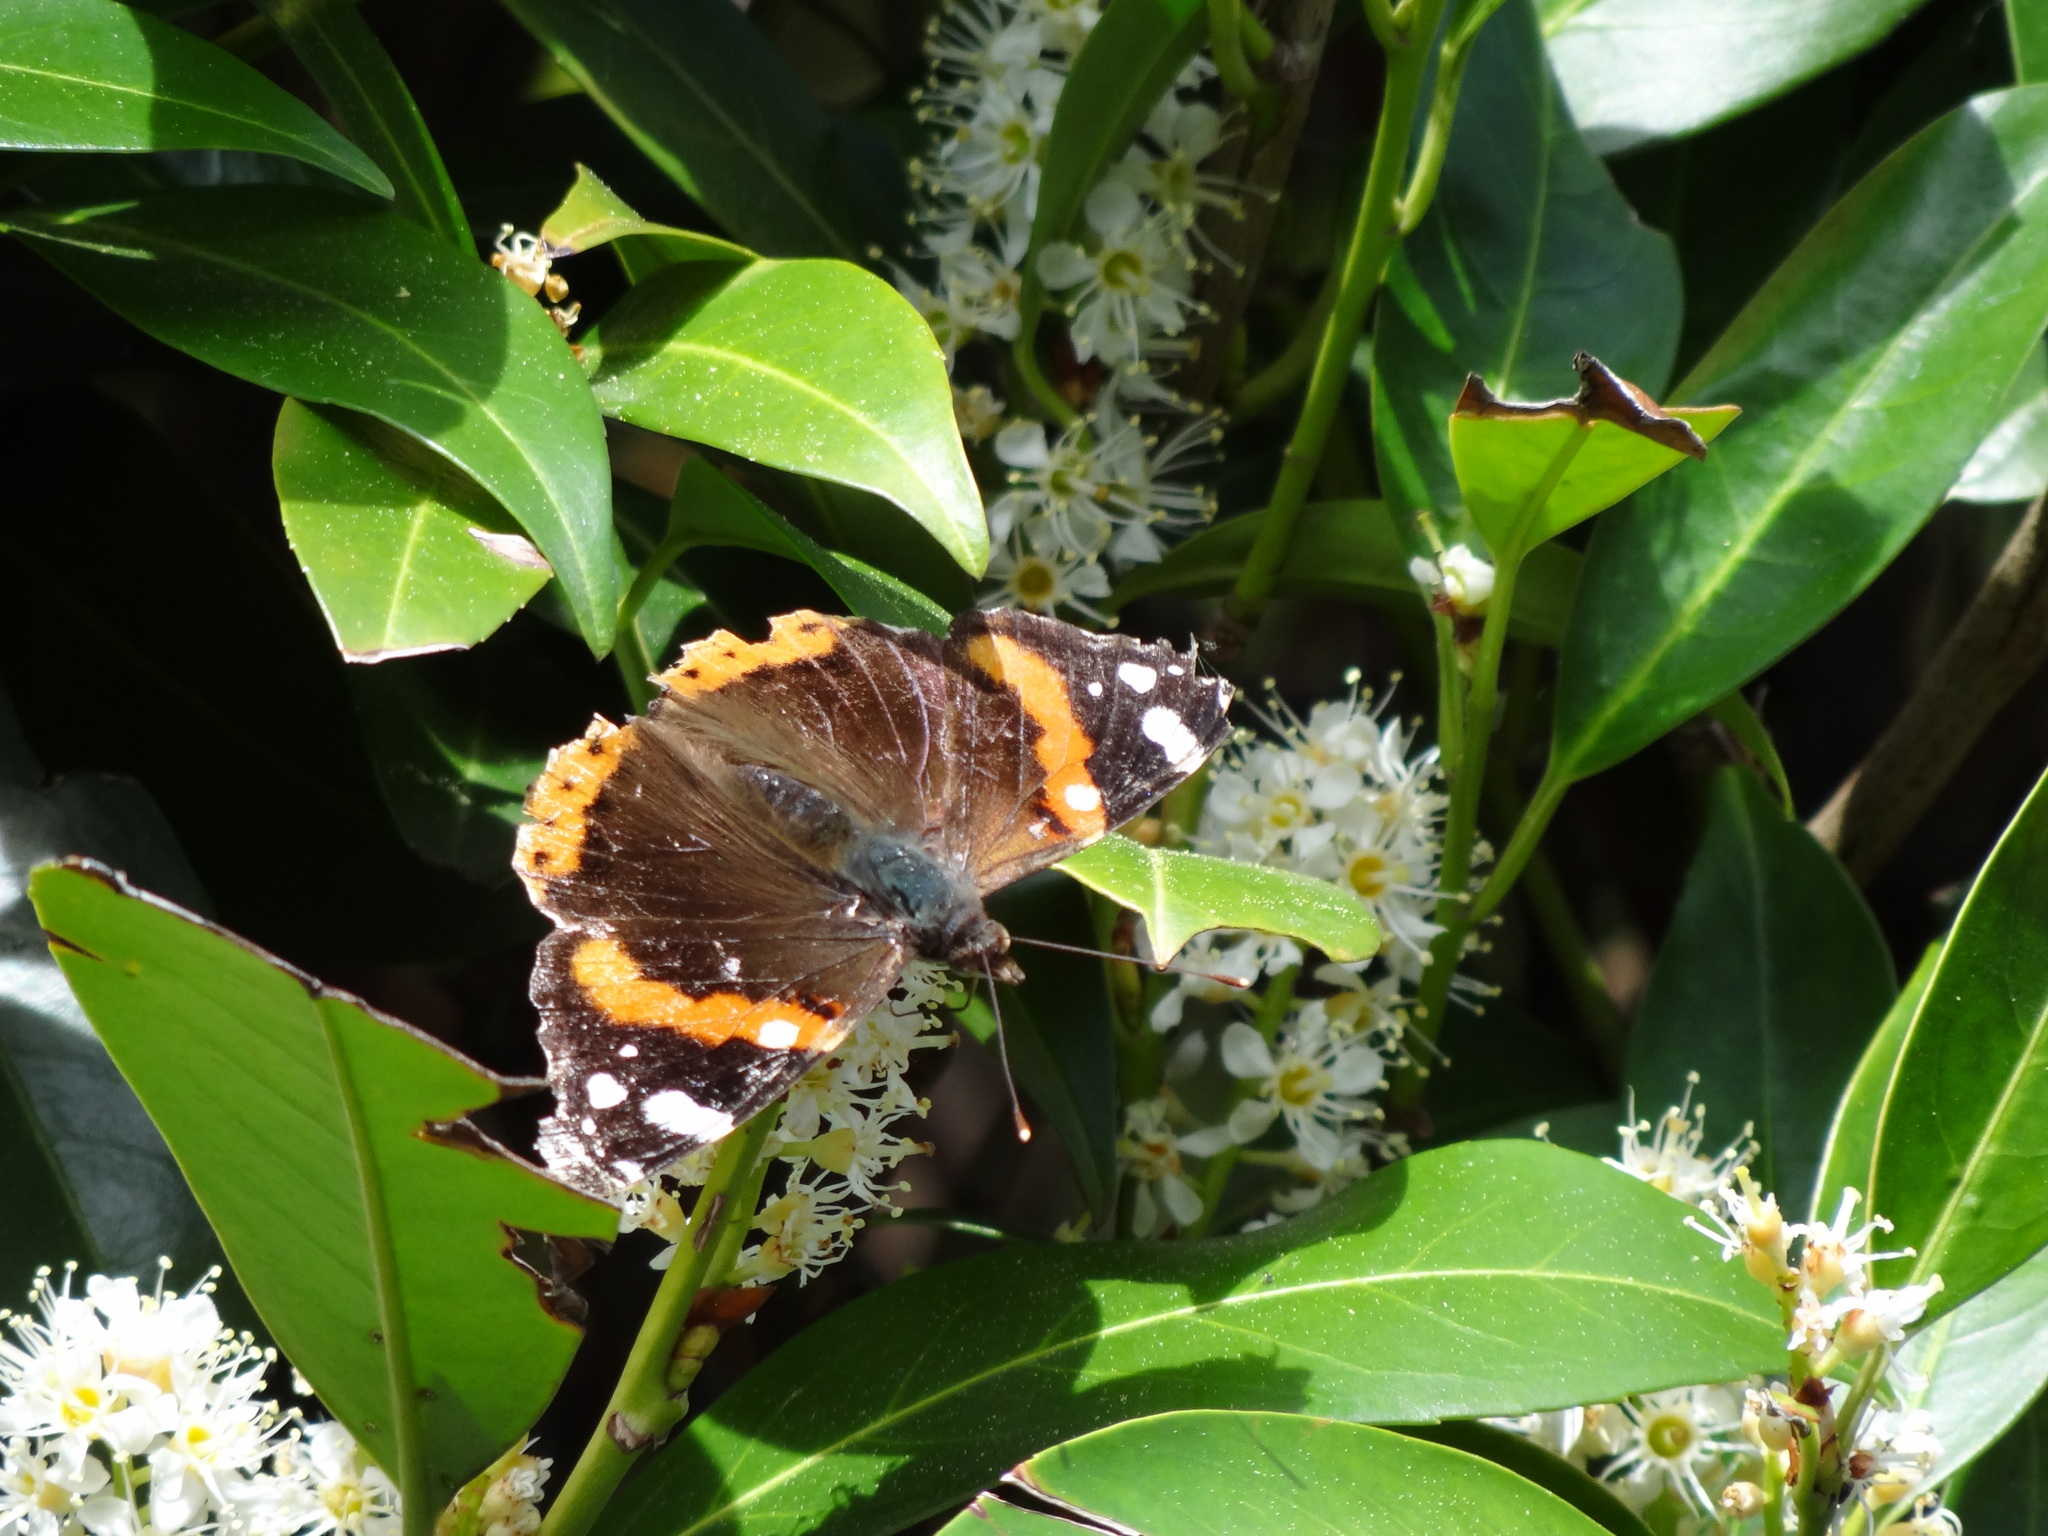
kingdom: Animalia
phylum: Arthropoda
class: Insecta
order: Lepidoptera
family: Nymphalidae
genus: Vanessa
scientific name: Vanessa atalanta
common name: Red admiral
